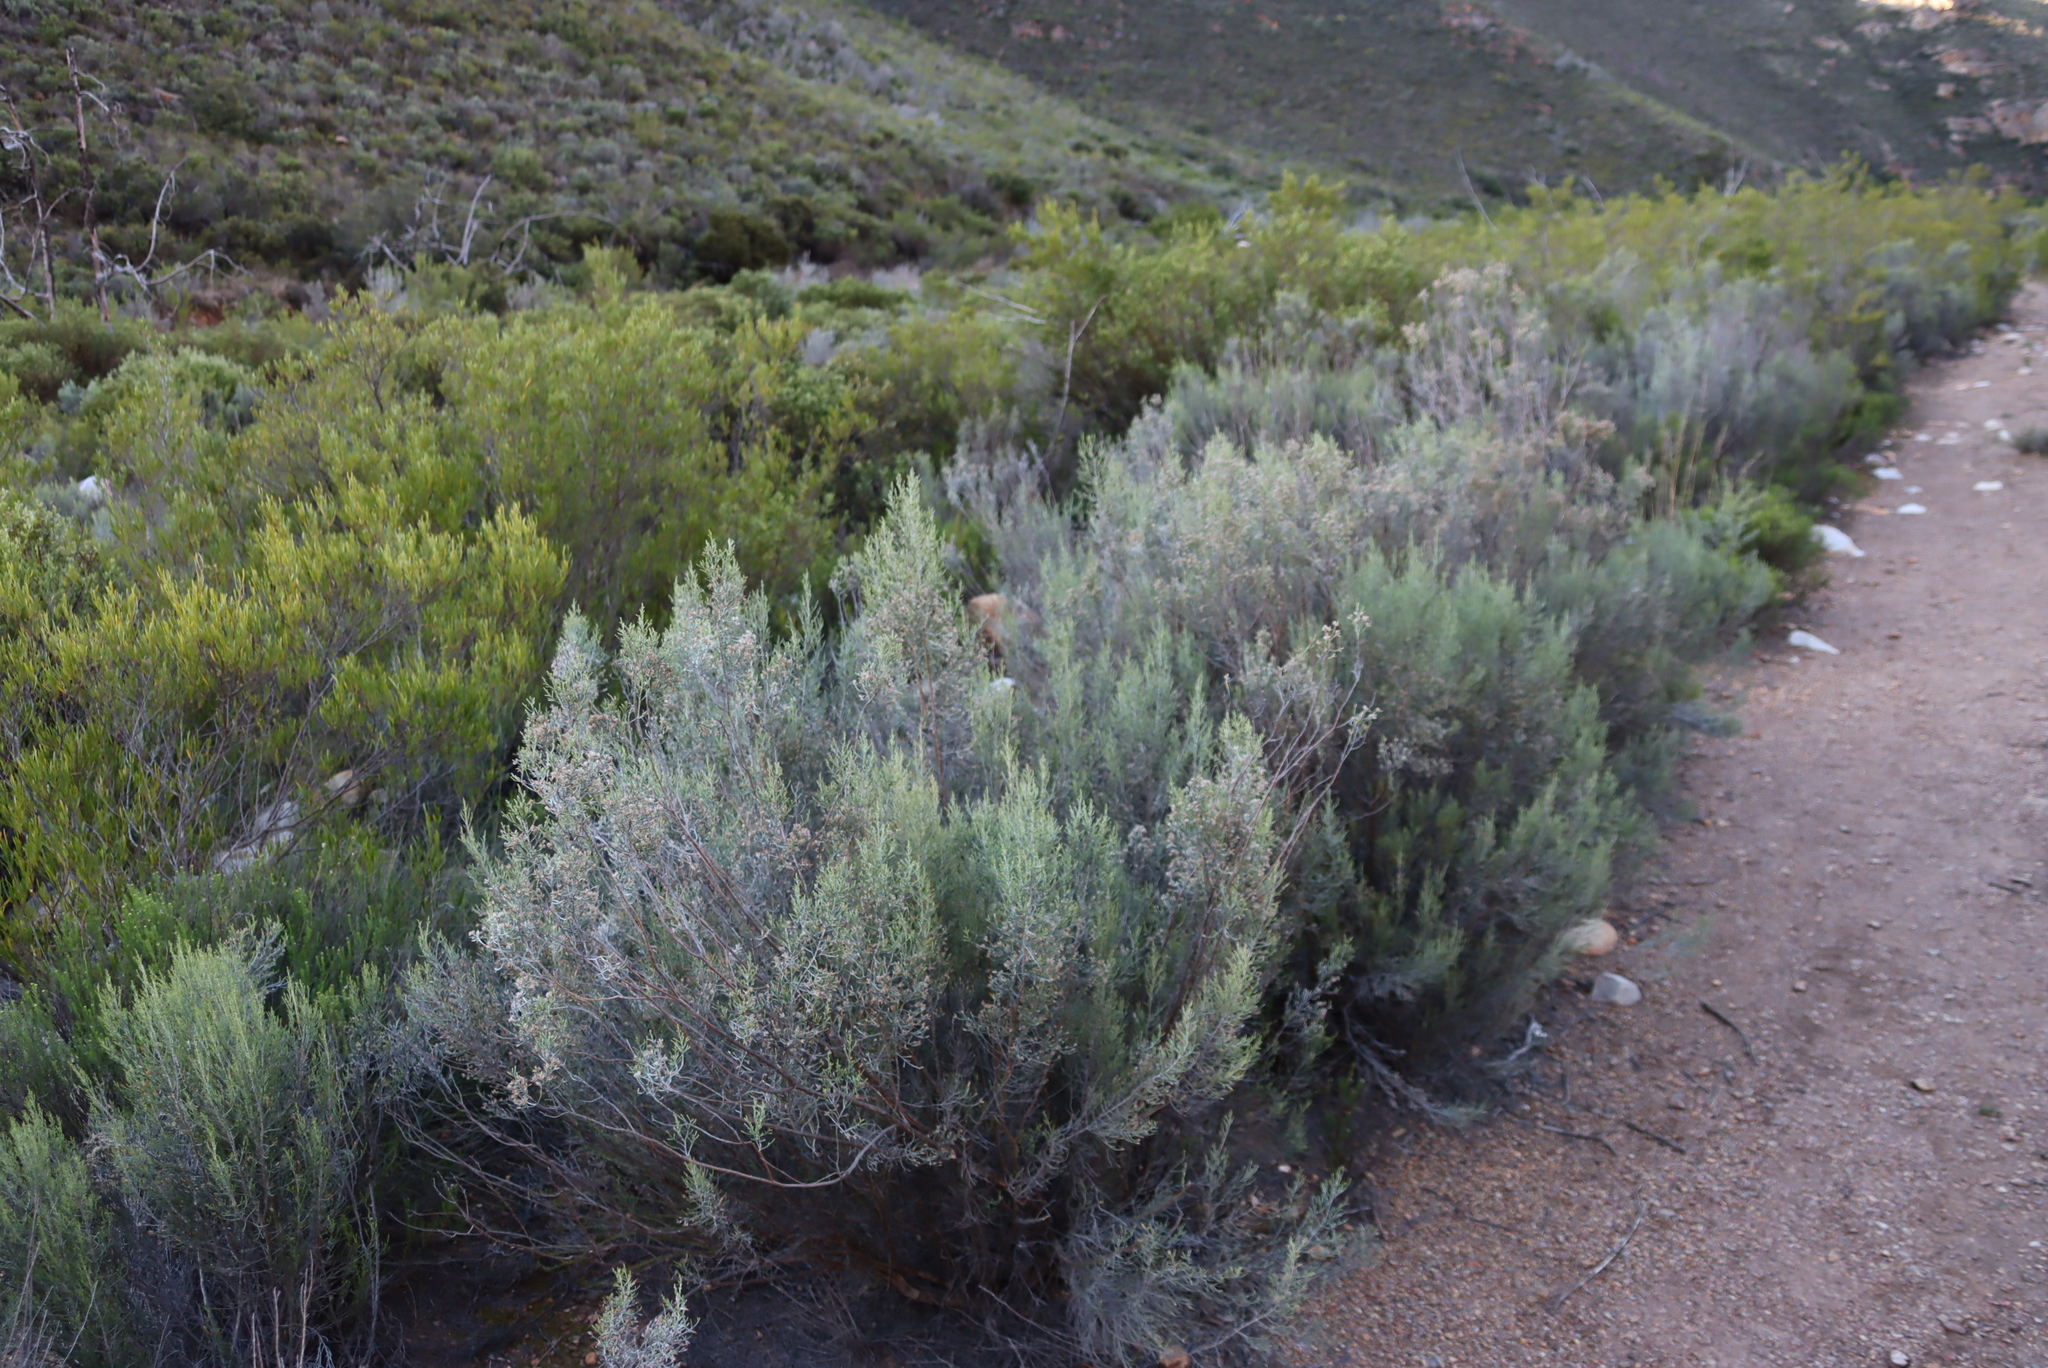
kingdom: Plantae
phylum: Tracheophyta
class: Magnoliopsida
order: Asterales
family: Asteraceae
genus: Dicerothamnus
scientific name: Dicerothamnus rhinocerotis
